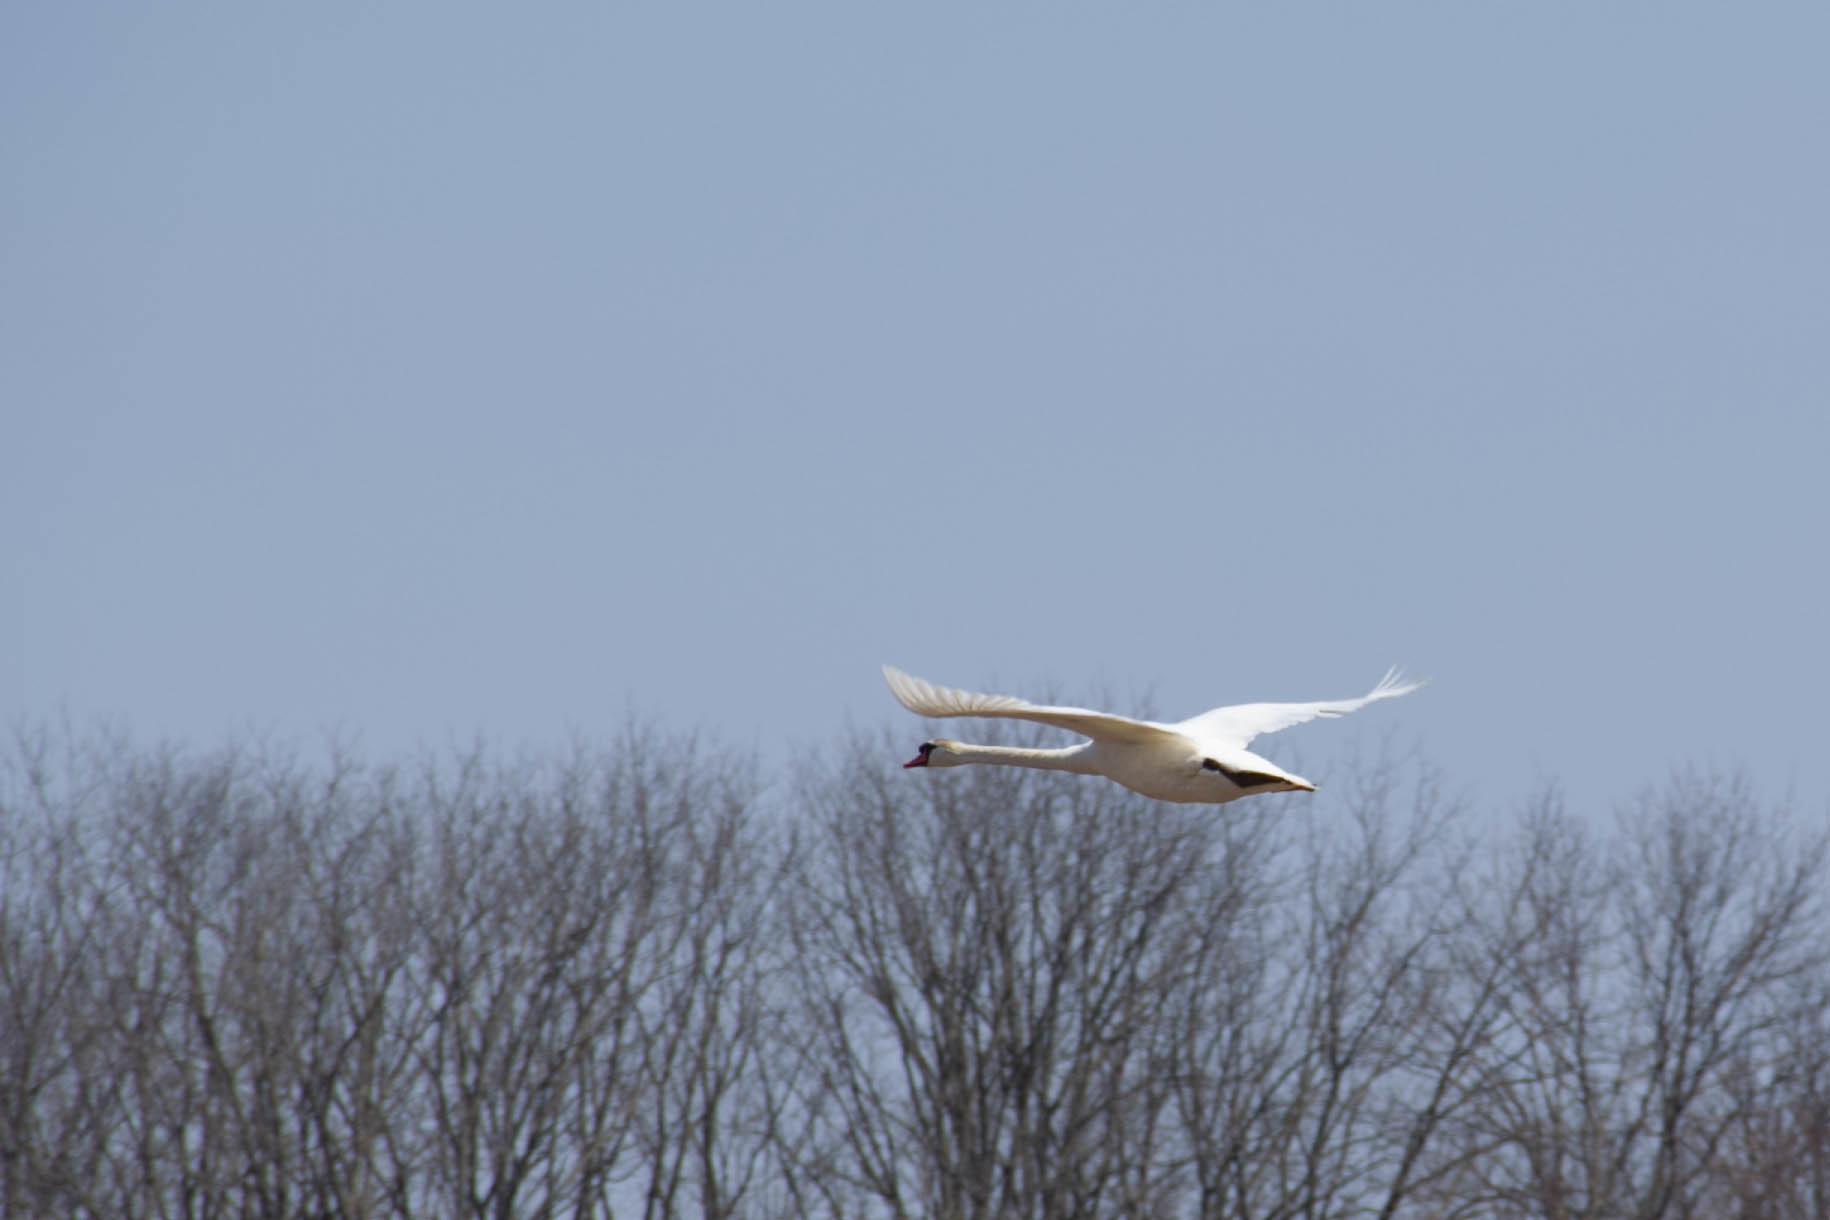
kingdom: Animalia
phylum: Chordata
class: Aves
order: Anseriformes
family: Anatidae
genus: Cygnus
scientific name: Cygnus olor
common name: Mute swan
